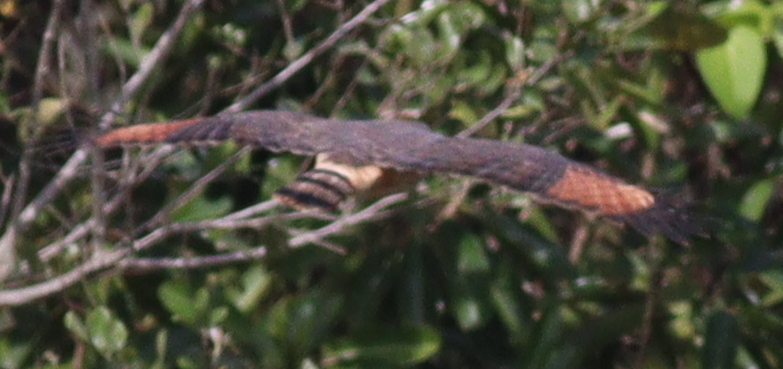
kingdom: Animalia
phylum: Chordata
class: Aves
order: Accipitriformes
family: Accipitridae
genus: Rupornis
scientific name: Rupornis magnirostris
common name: Roadside hawk
